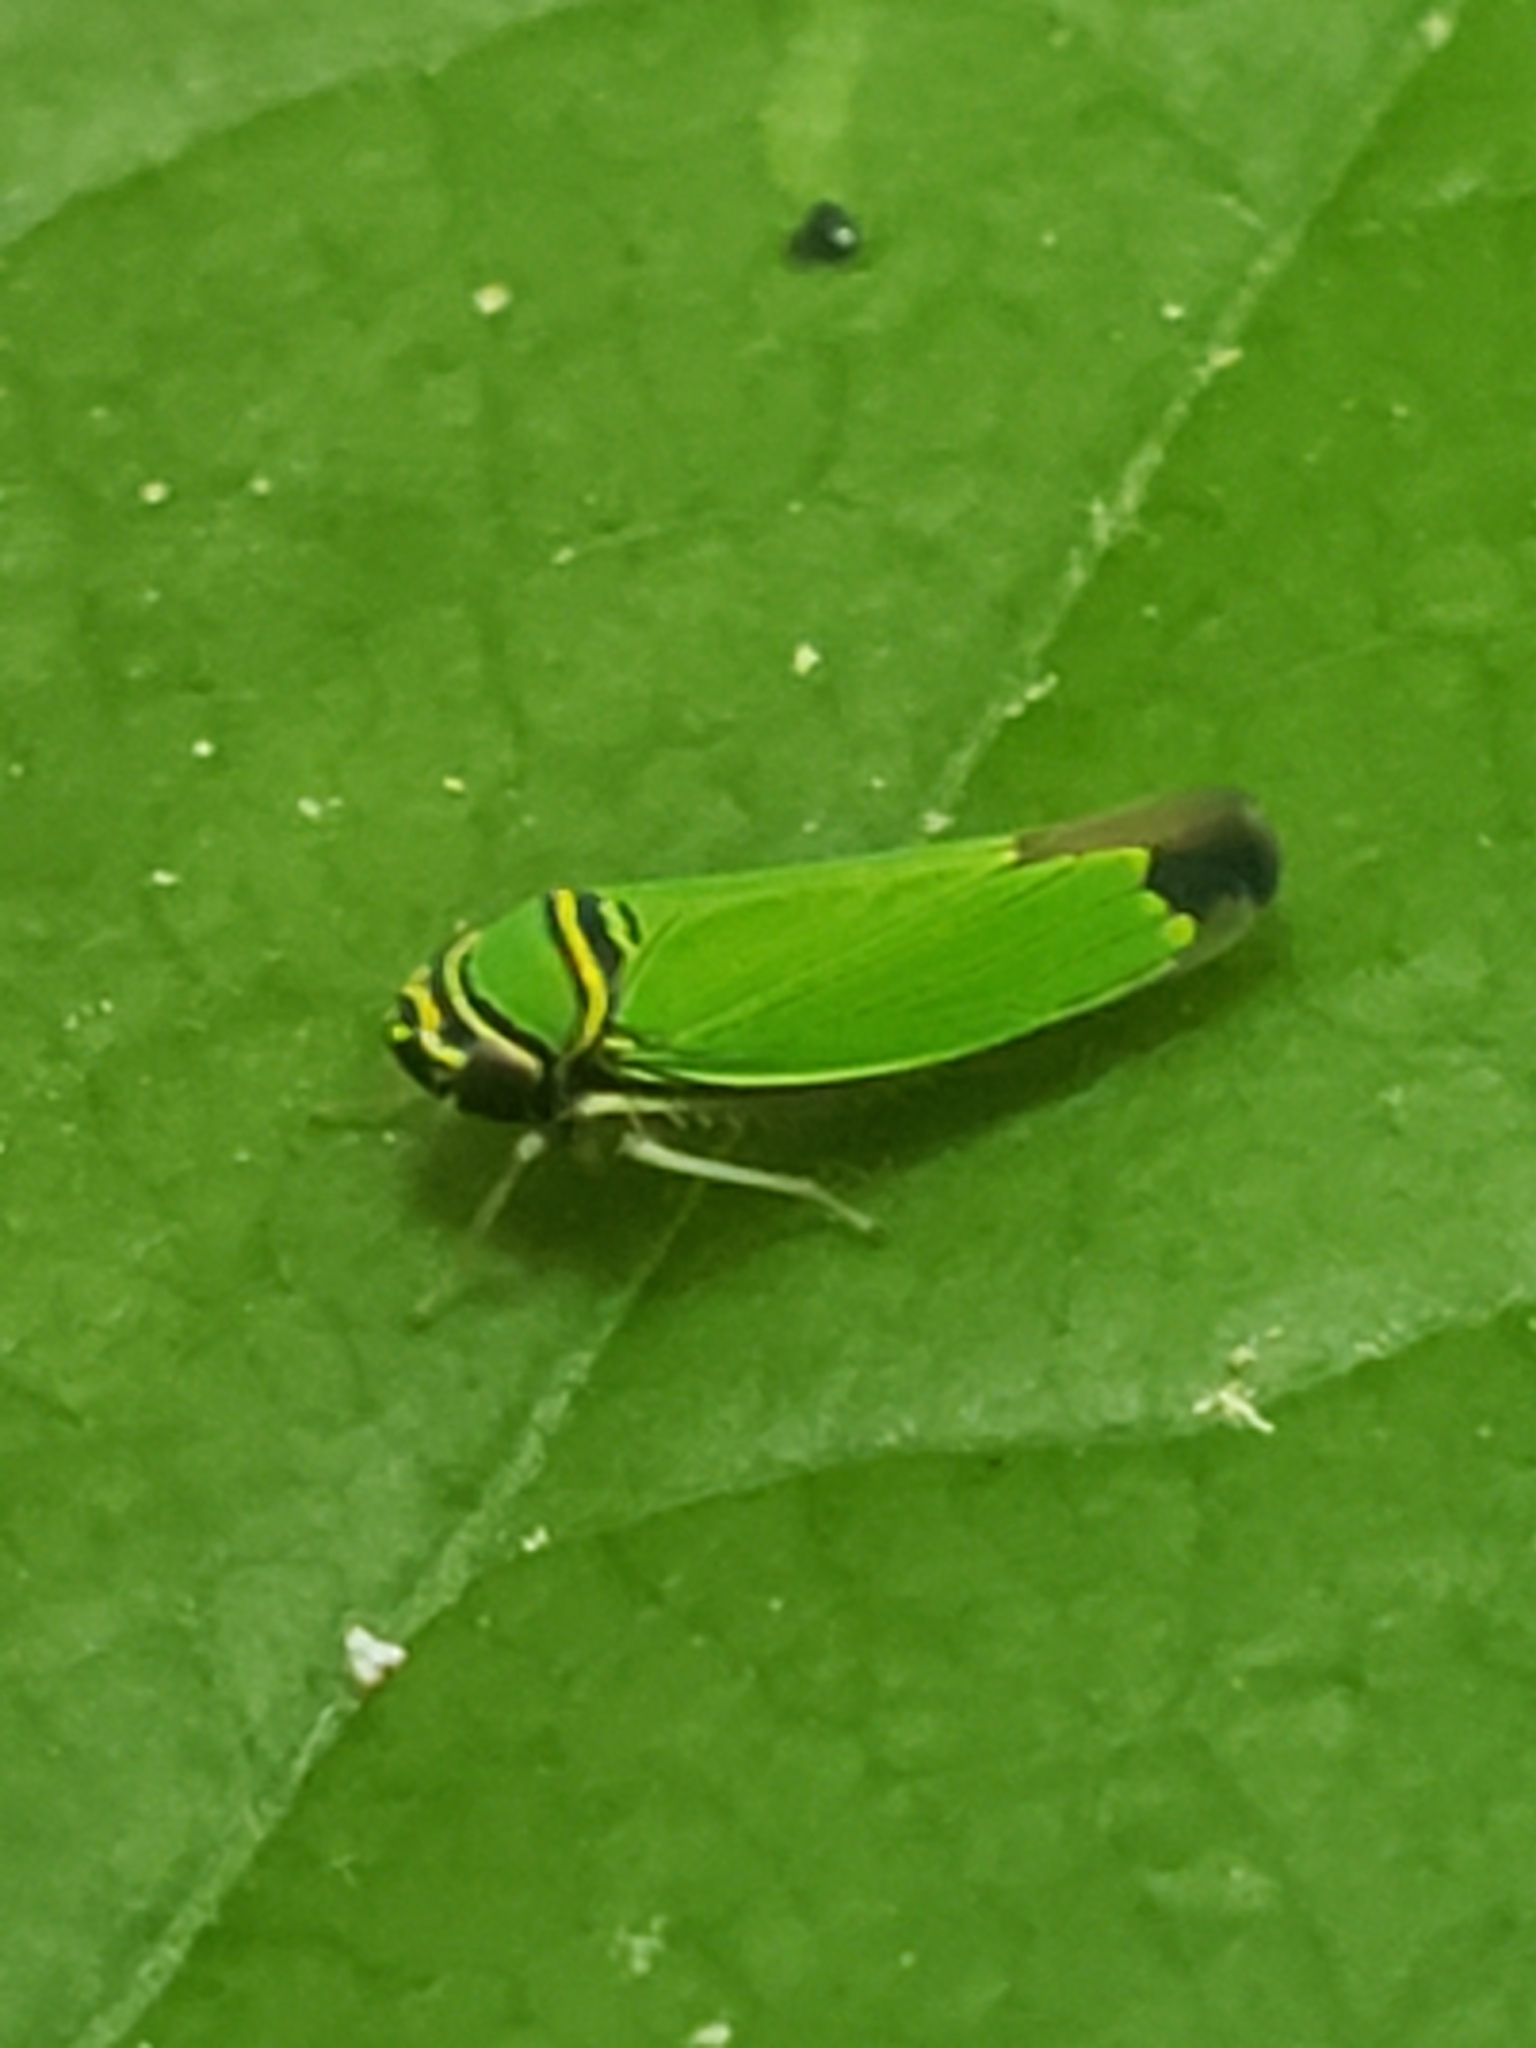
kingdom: Animalia
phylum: Arthropoda
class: Insecta
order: Hemiptera
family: Cicadellidae
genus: Tylozygus
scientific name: Tylozygus geometricus
